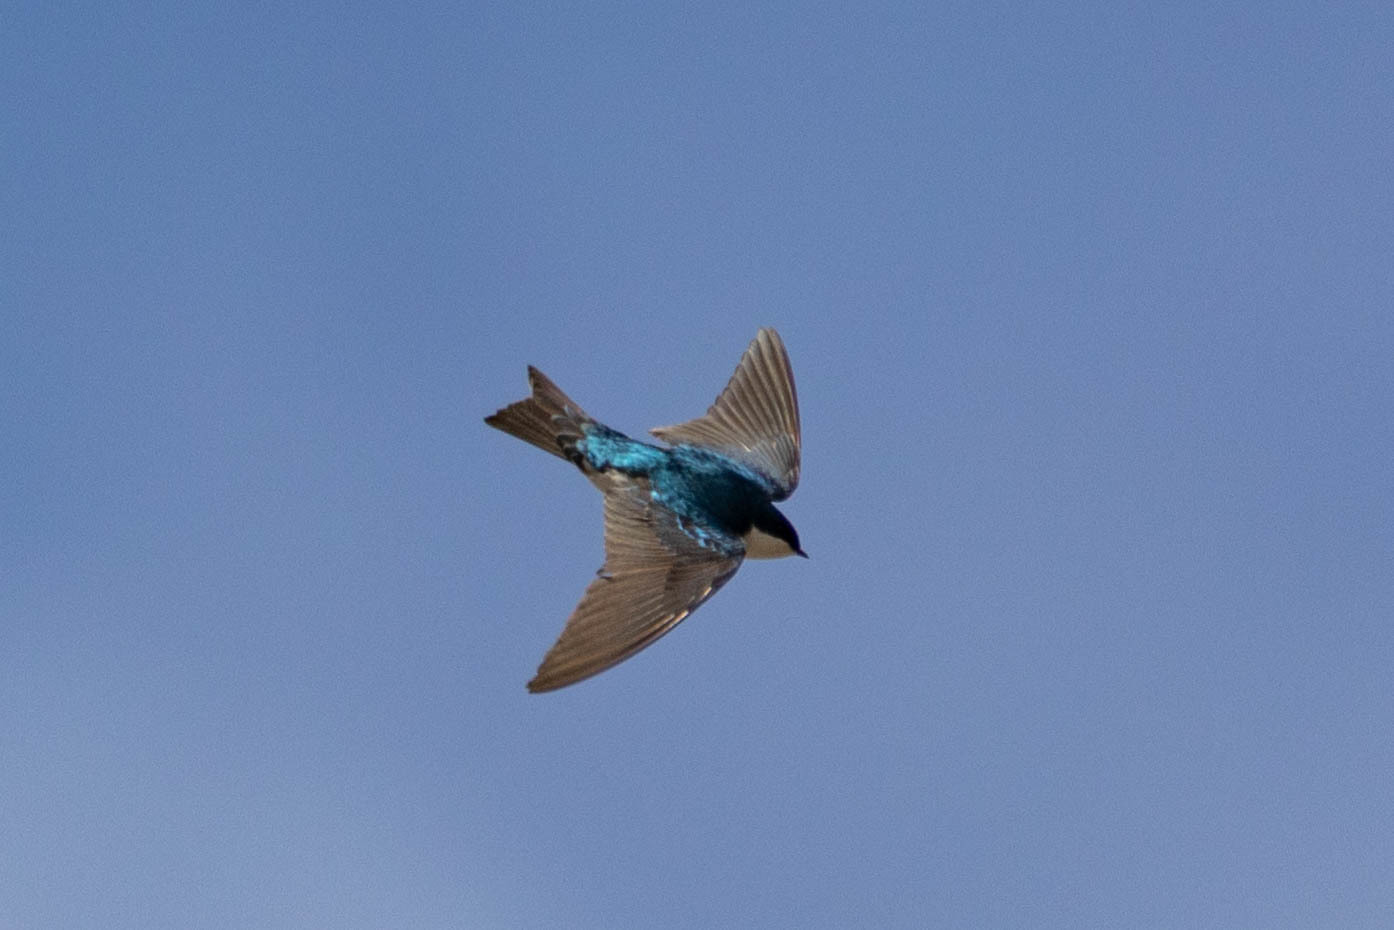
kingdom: Animalia
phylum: Chordata
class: Aves
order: Passeriformes
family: Hirundinidae
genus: Tachycineta
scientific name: Tachycineta bicolor
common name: Tree swallow
